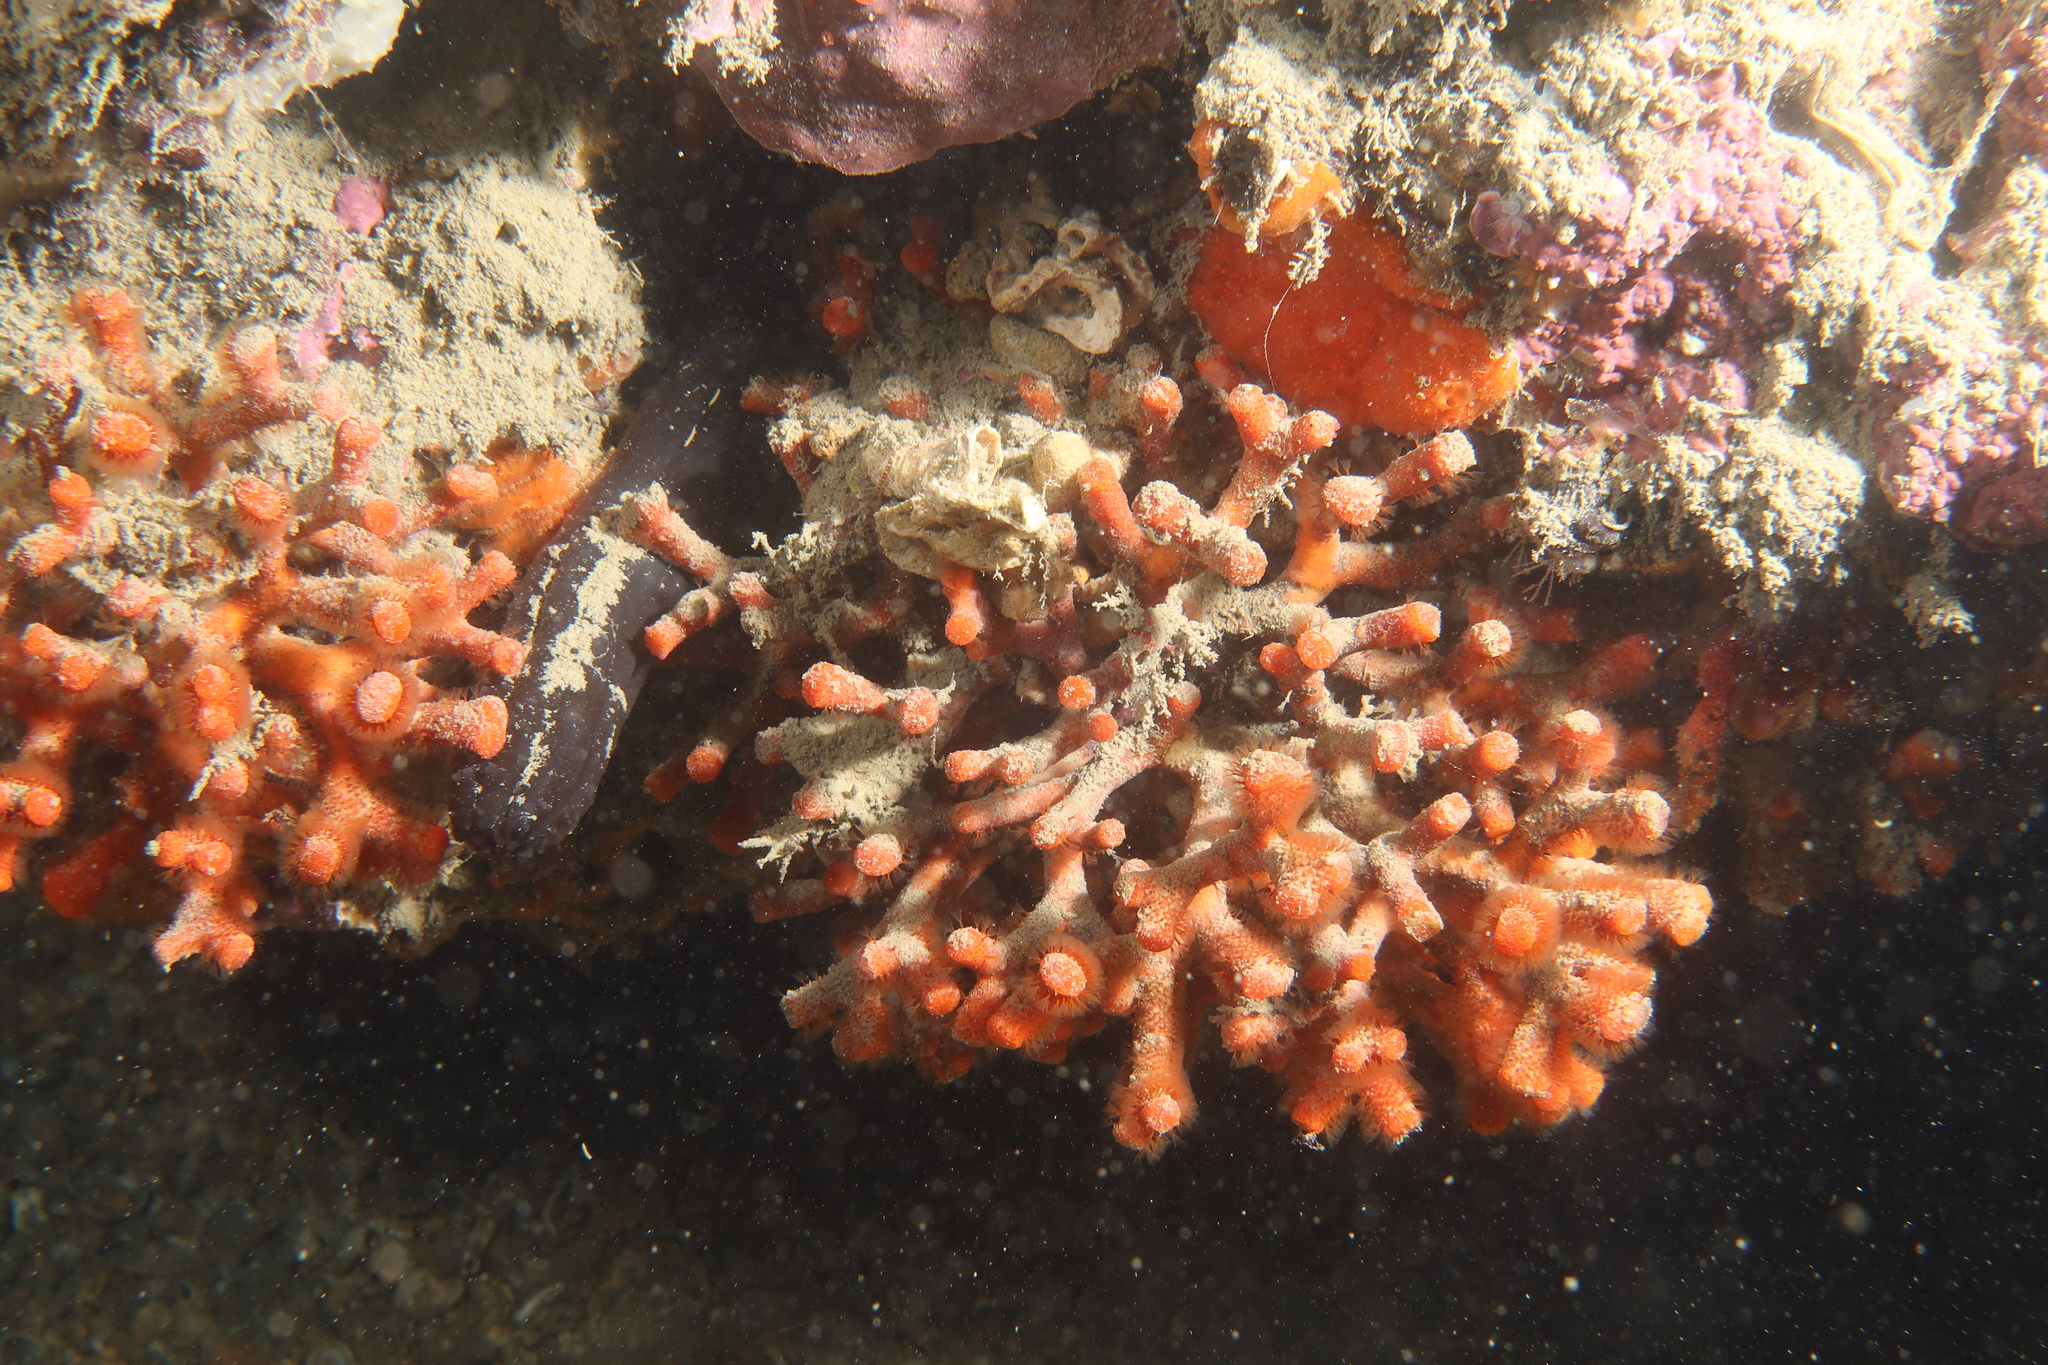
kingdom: Animalia
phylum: Bryozoa
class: Gymnolaemata
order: Cheilostomatida
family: Myriaporidae
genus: Myriapora
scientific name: Myriapora truncata
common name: False coral
